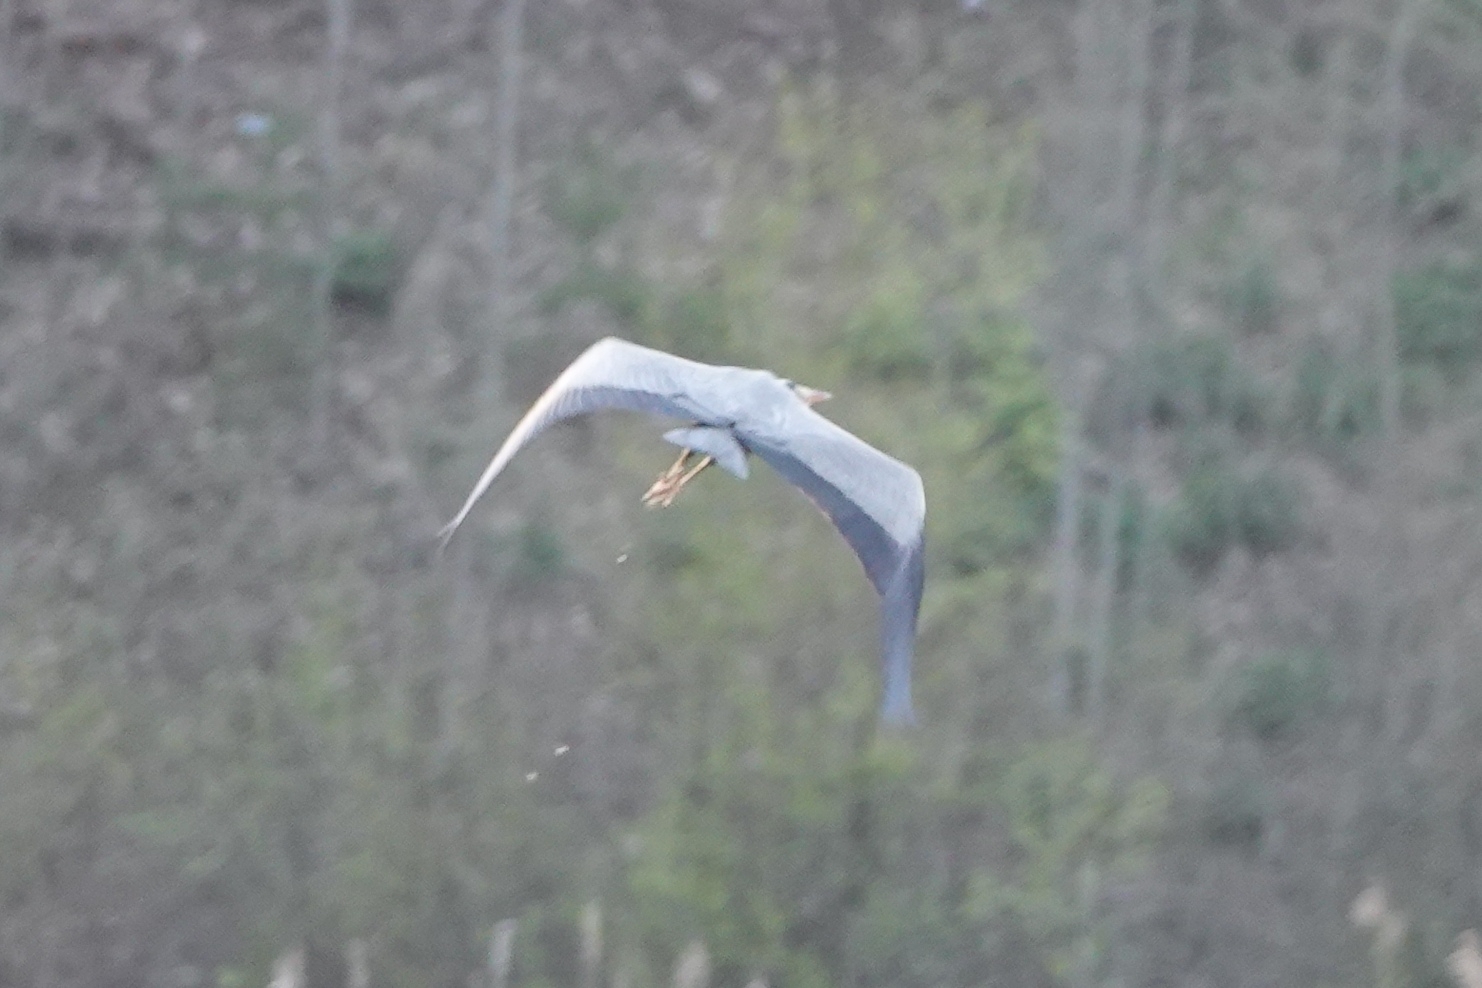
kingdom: Animalia
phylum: Chordata
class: Aves
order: Pelecaniformes
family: Ardeidae
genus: Ardea
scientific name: Ardea cinerea
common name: Grey heron
